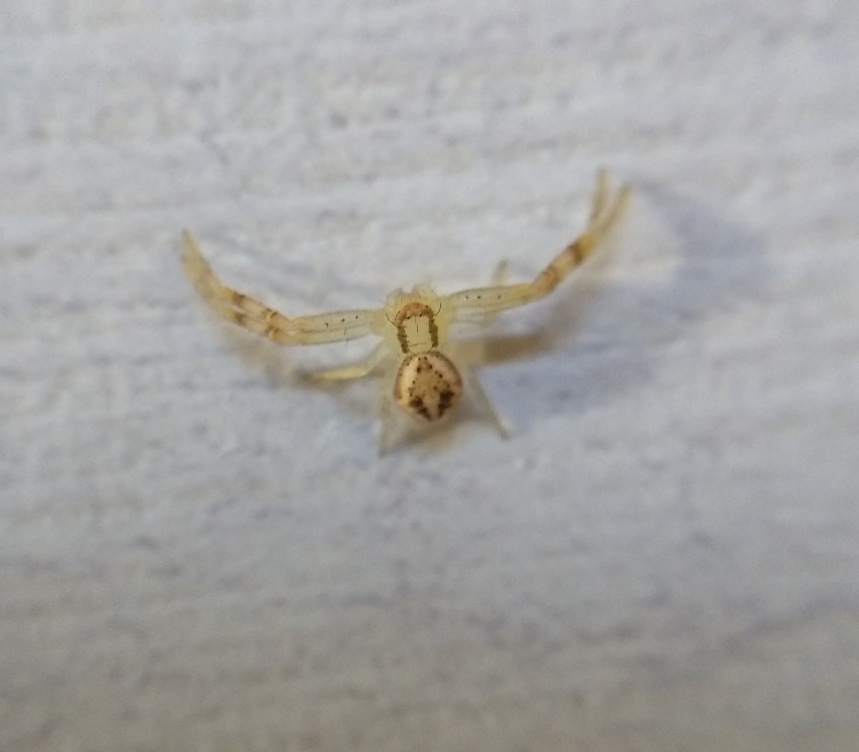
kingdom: Animalia
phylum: Arthropoda
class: Arachnida
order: Araneae
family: Thomisidae
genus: Misumenops
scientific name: Misumenops
